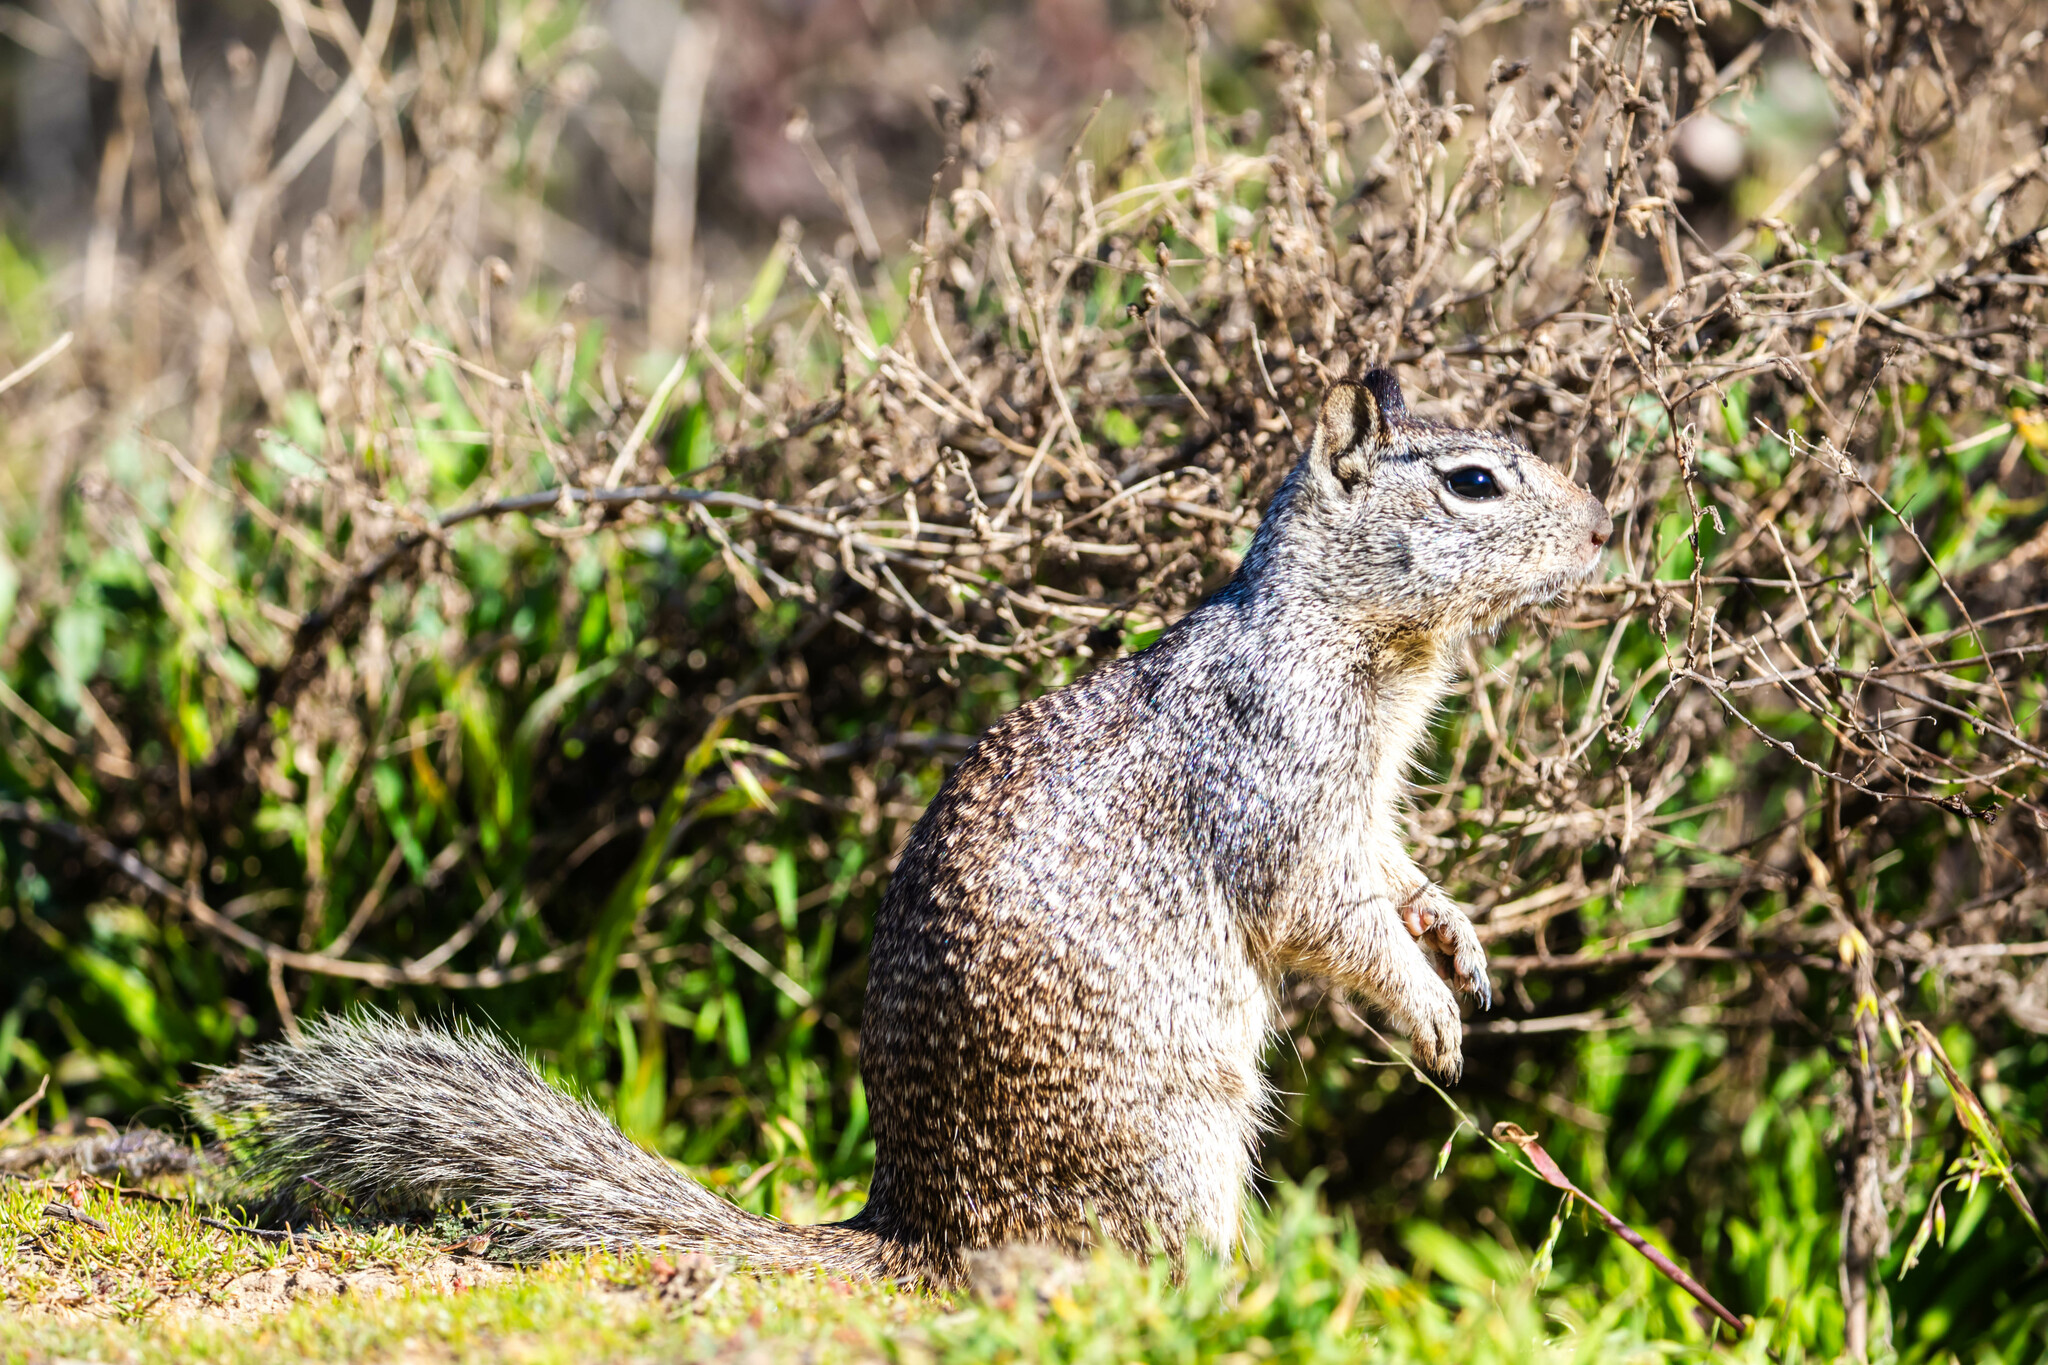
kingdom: Animalia
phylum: Chordata
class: Mammalia
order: Rodentia
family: Sciuridae
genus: Otospermophilus
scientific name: Otospermophilus beecheyi
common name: California ground squirrel
